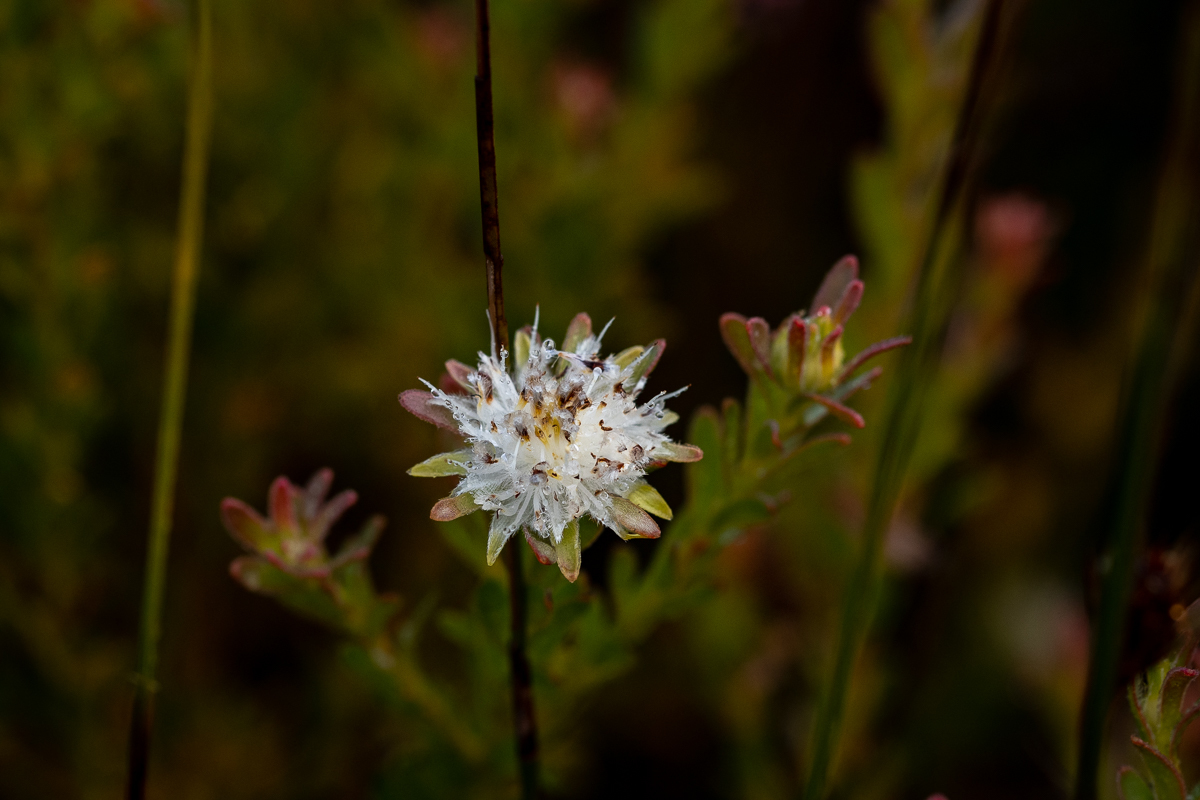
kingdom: Plantae
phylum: Tracheophyta
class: Magnoliopsida
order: Proteales
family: Proteaceae
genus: Diastella
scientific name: Diastella fraterna
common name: Palmiet silkypuff
